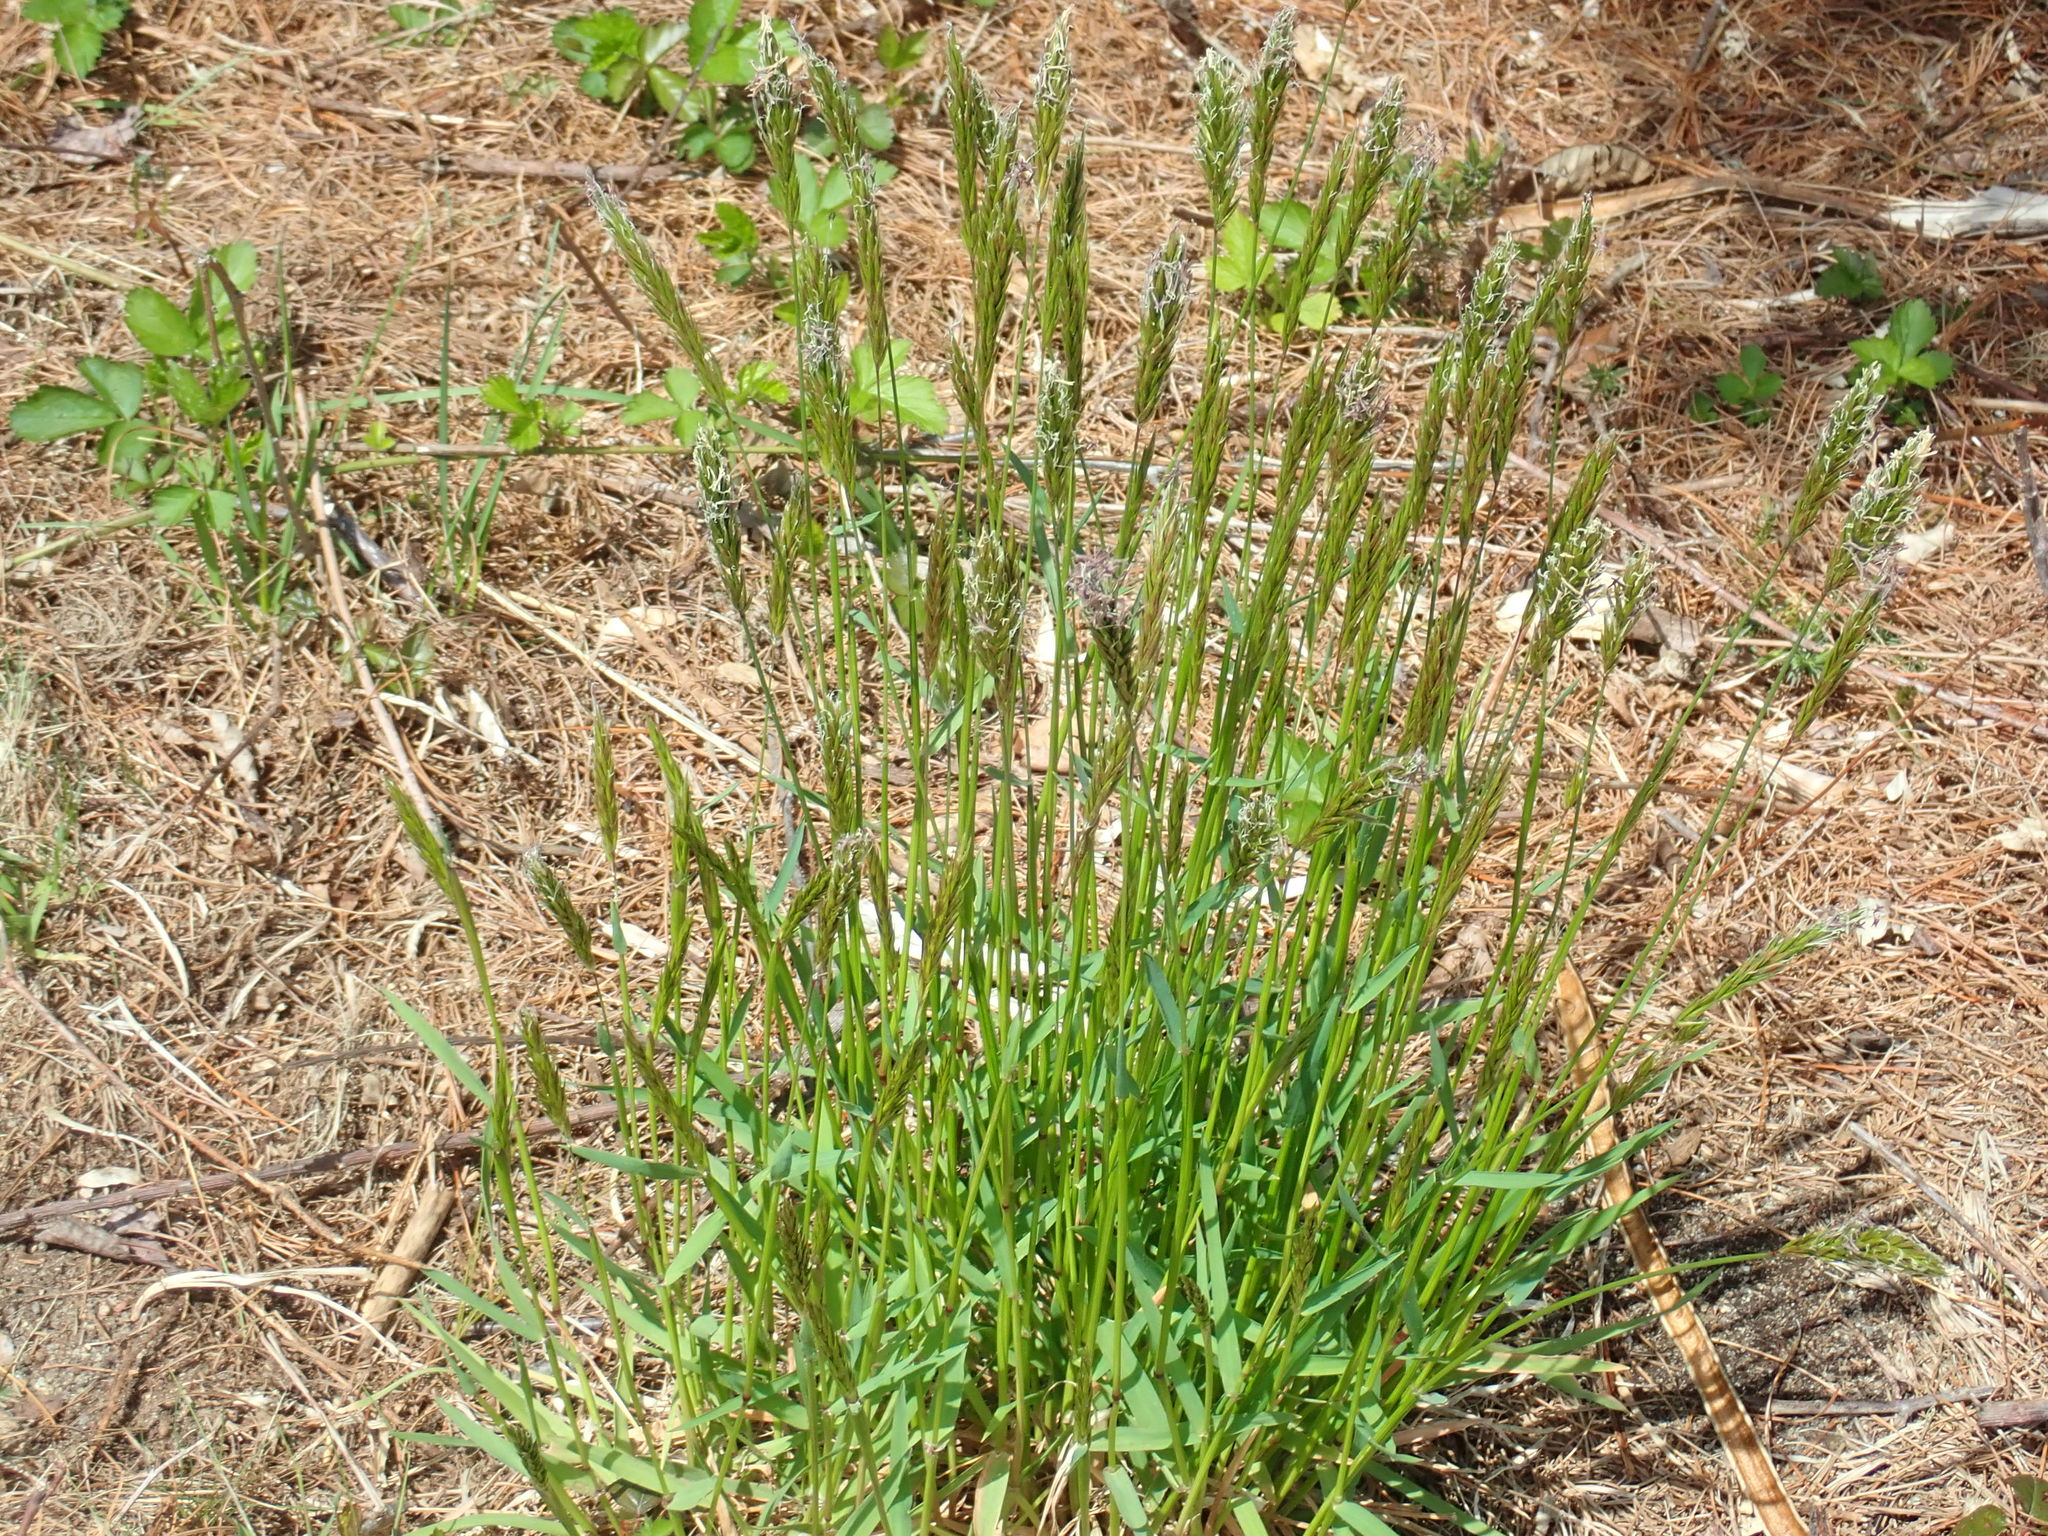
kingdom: Plantae
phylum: Tracheophyta
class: Liliopsida
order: Poales
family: Poaceae
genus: Anthoxanthum
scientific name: Anthoxanthum odoratum
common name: Sweet vernalgrass
